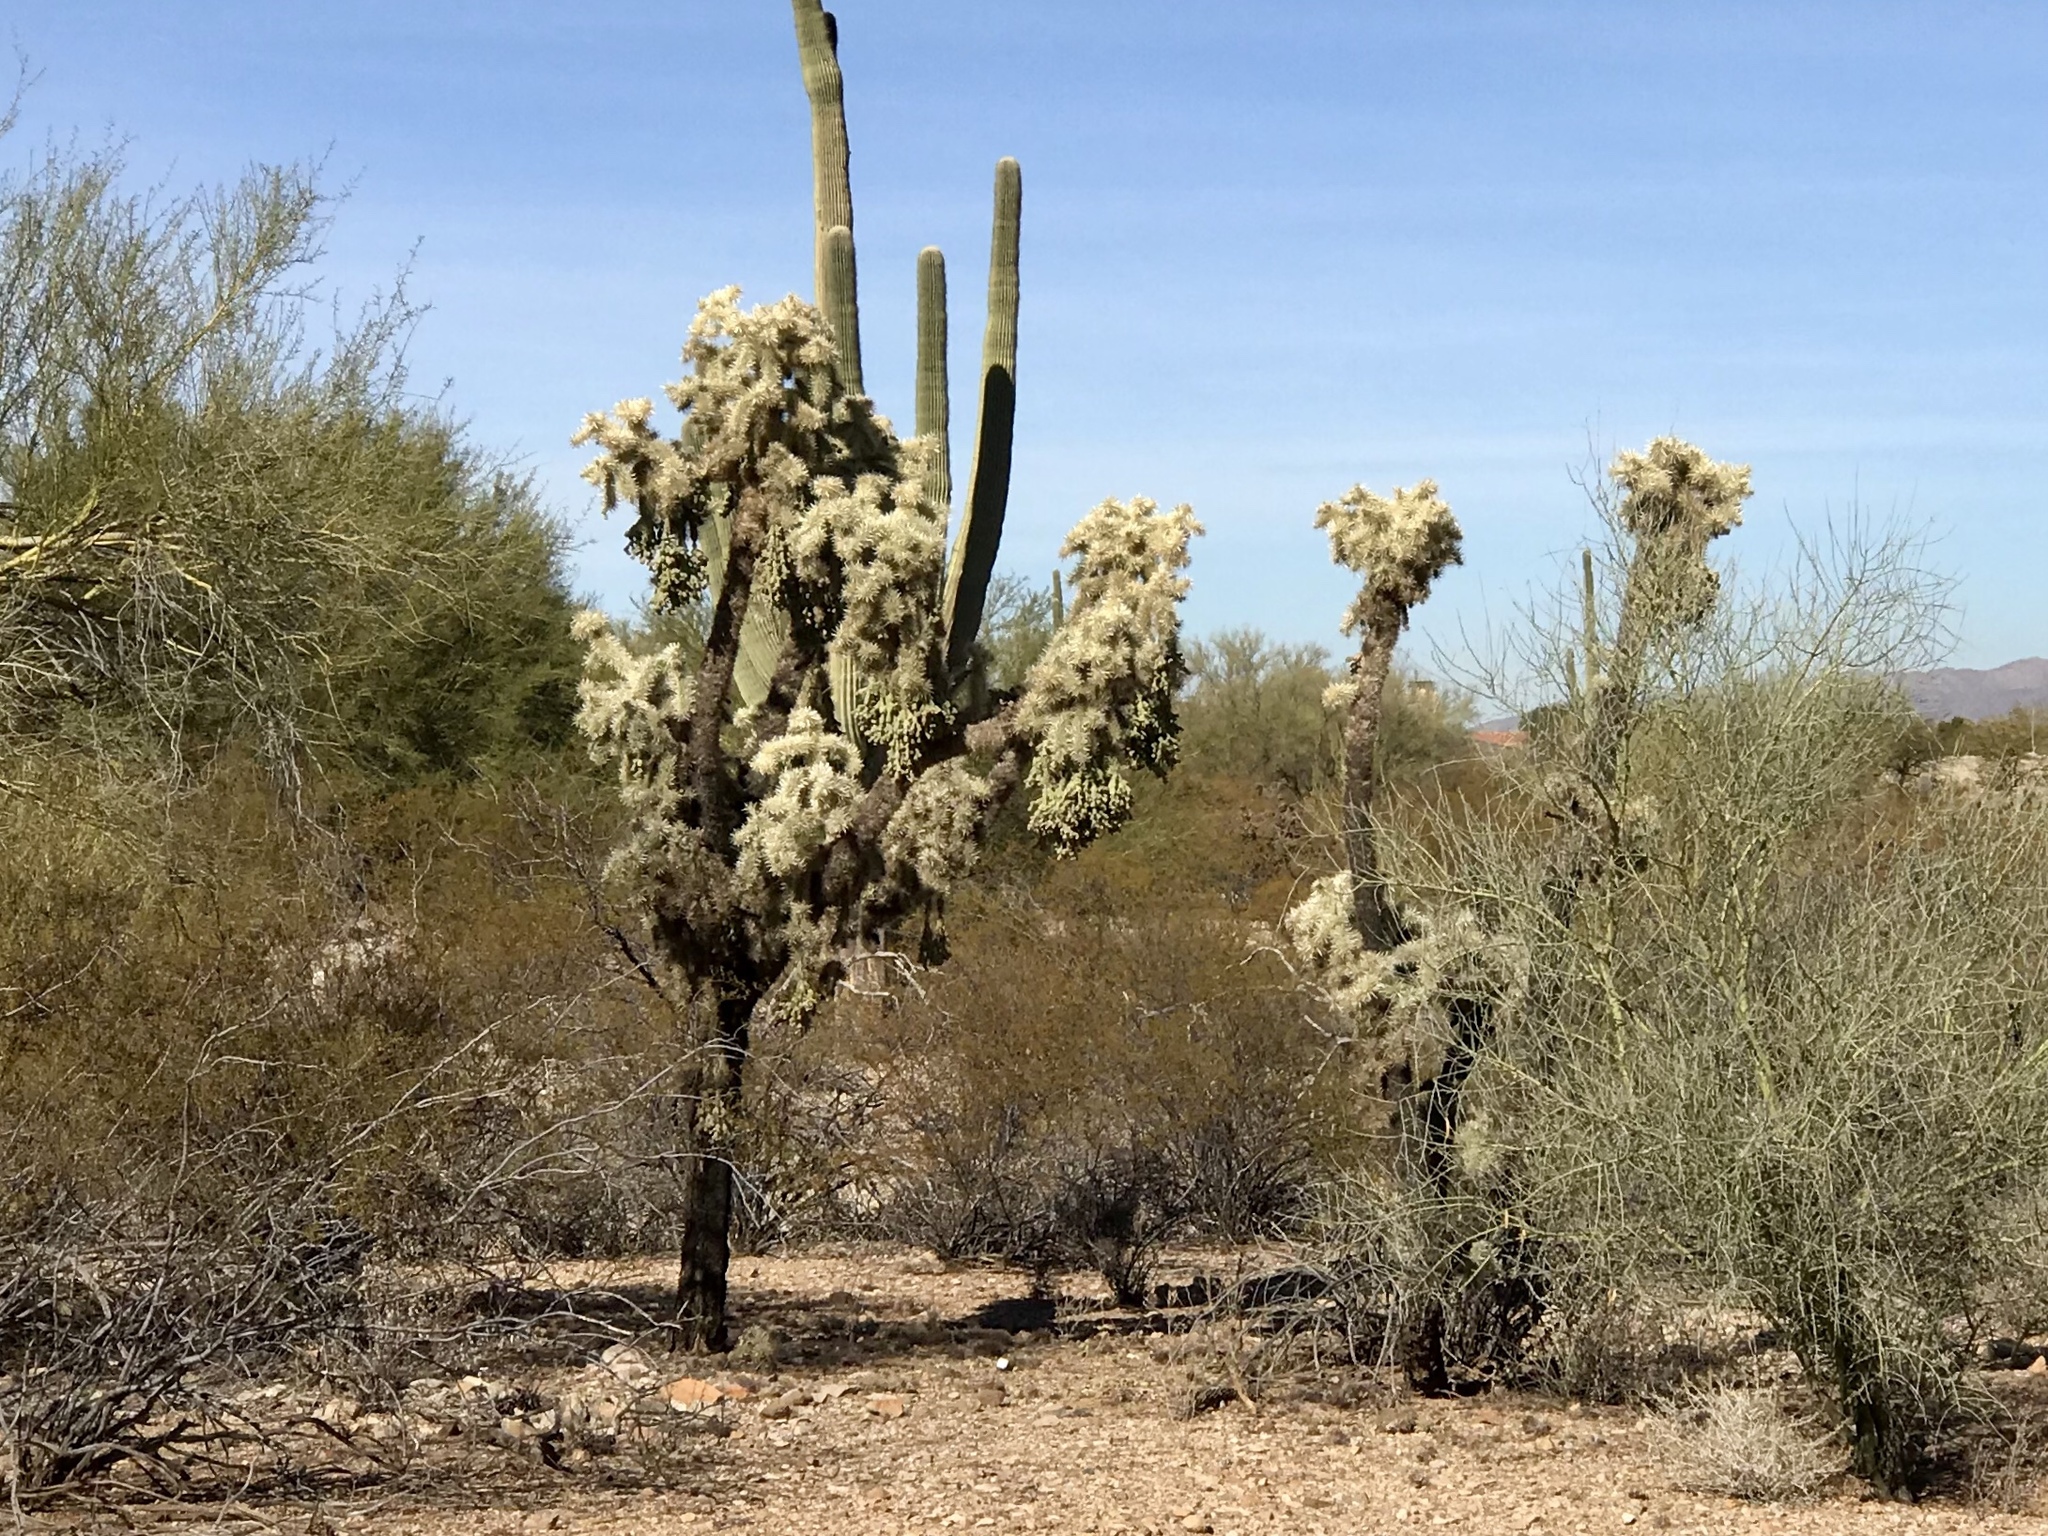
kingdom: Plantae
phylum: Tracheophyta
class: Magnoliopsida
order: Caryophyllales
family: Cactaceae
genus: Cylindropuntia
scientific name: Cylindropuntia fulgida
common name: Jumping cholla
